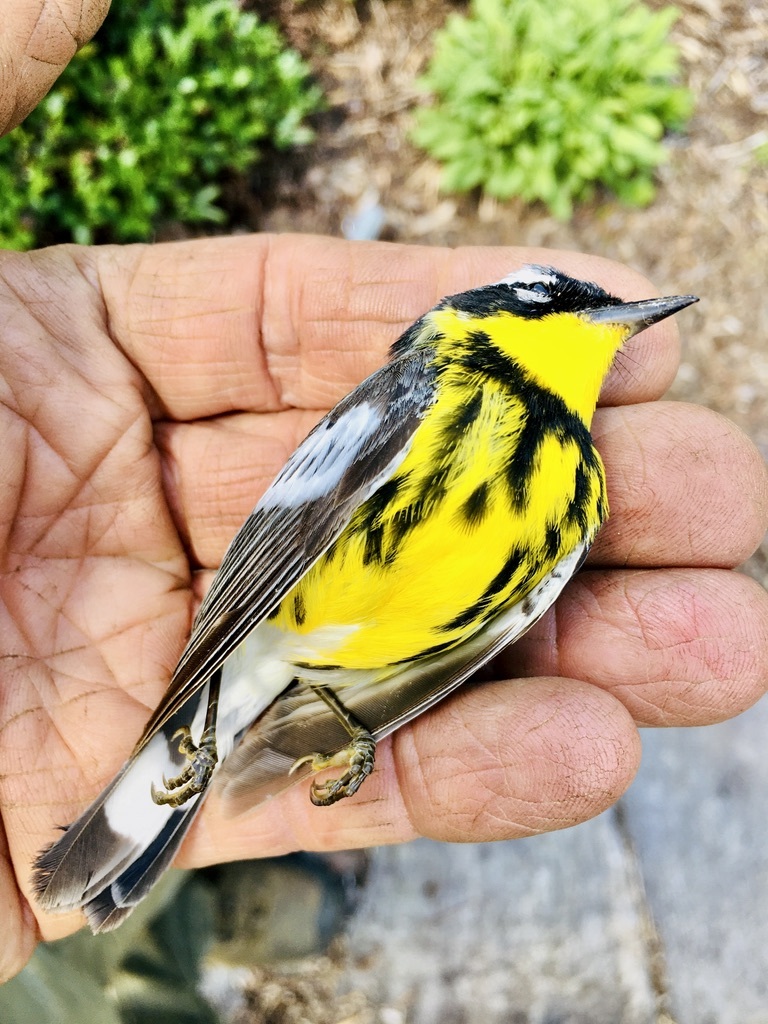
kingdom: Animalia
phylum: Chordata
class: Aves
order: Passeriformes
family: Parulidae
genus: Setophaga
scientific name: Setophaga magnolia
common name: Magnolia warbler
